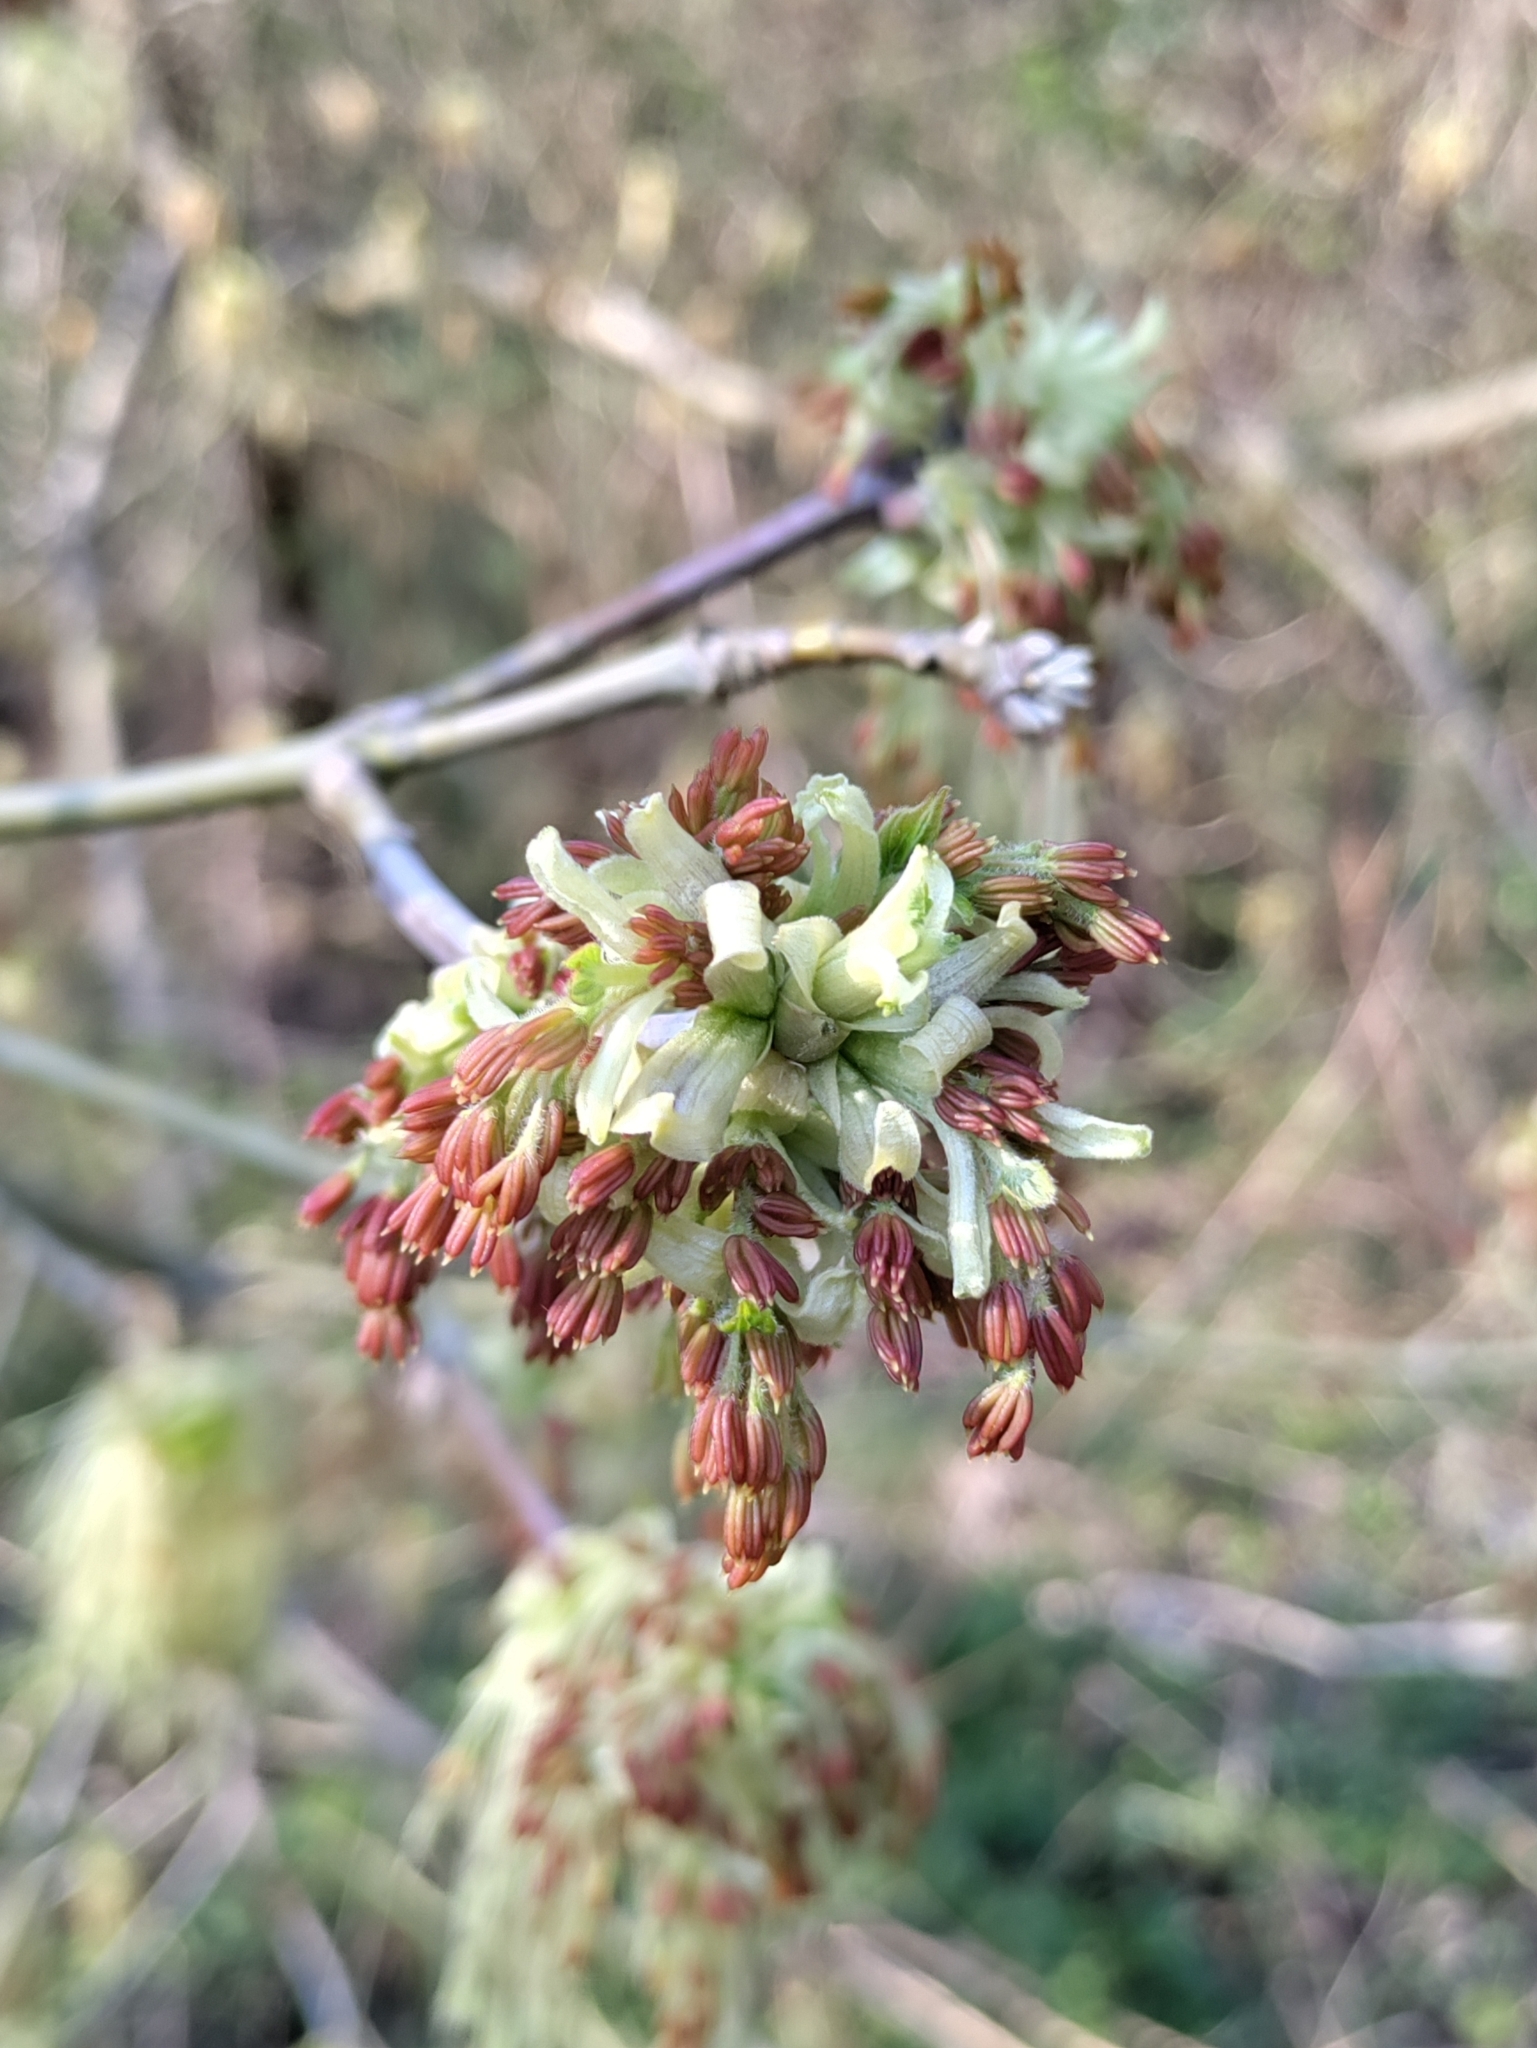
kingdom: Plantae
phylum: Tracheophyta
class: Magnoliopsida
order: Sapindales
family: Sapindaceae
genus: Acer
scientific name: Acer negundo
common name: Ashleaf maple
